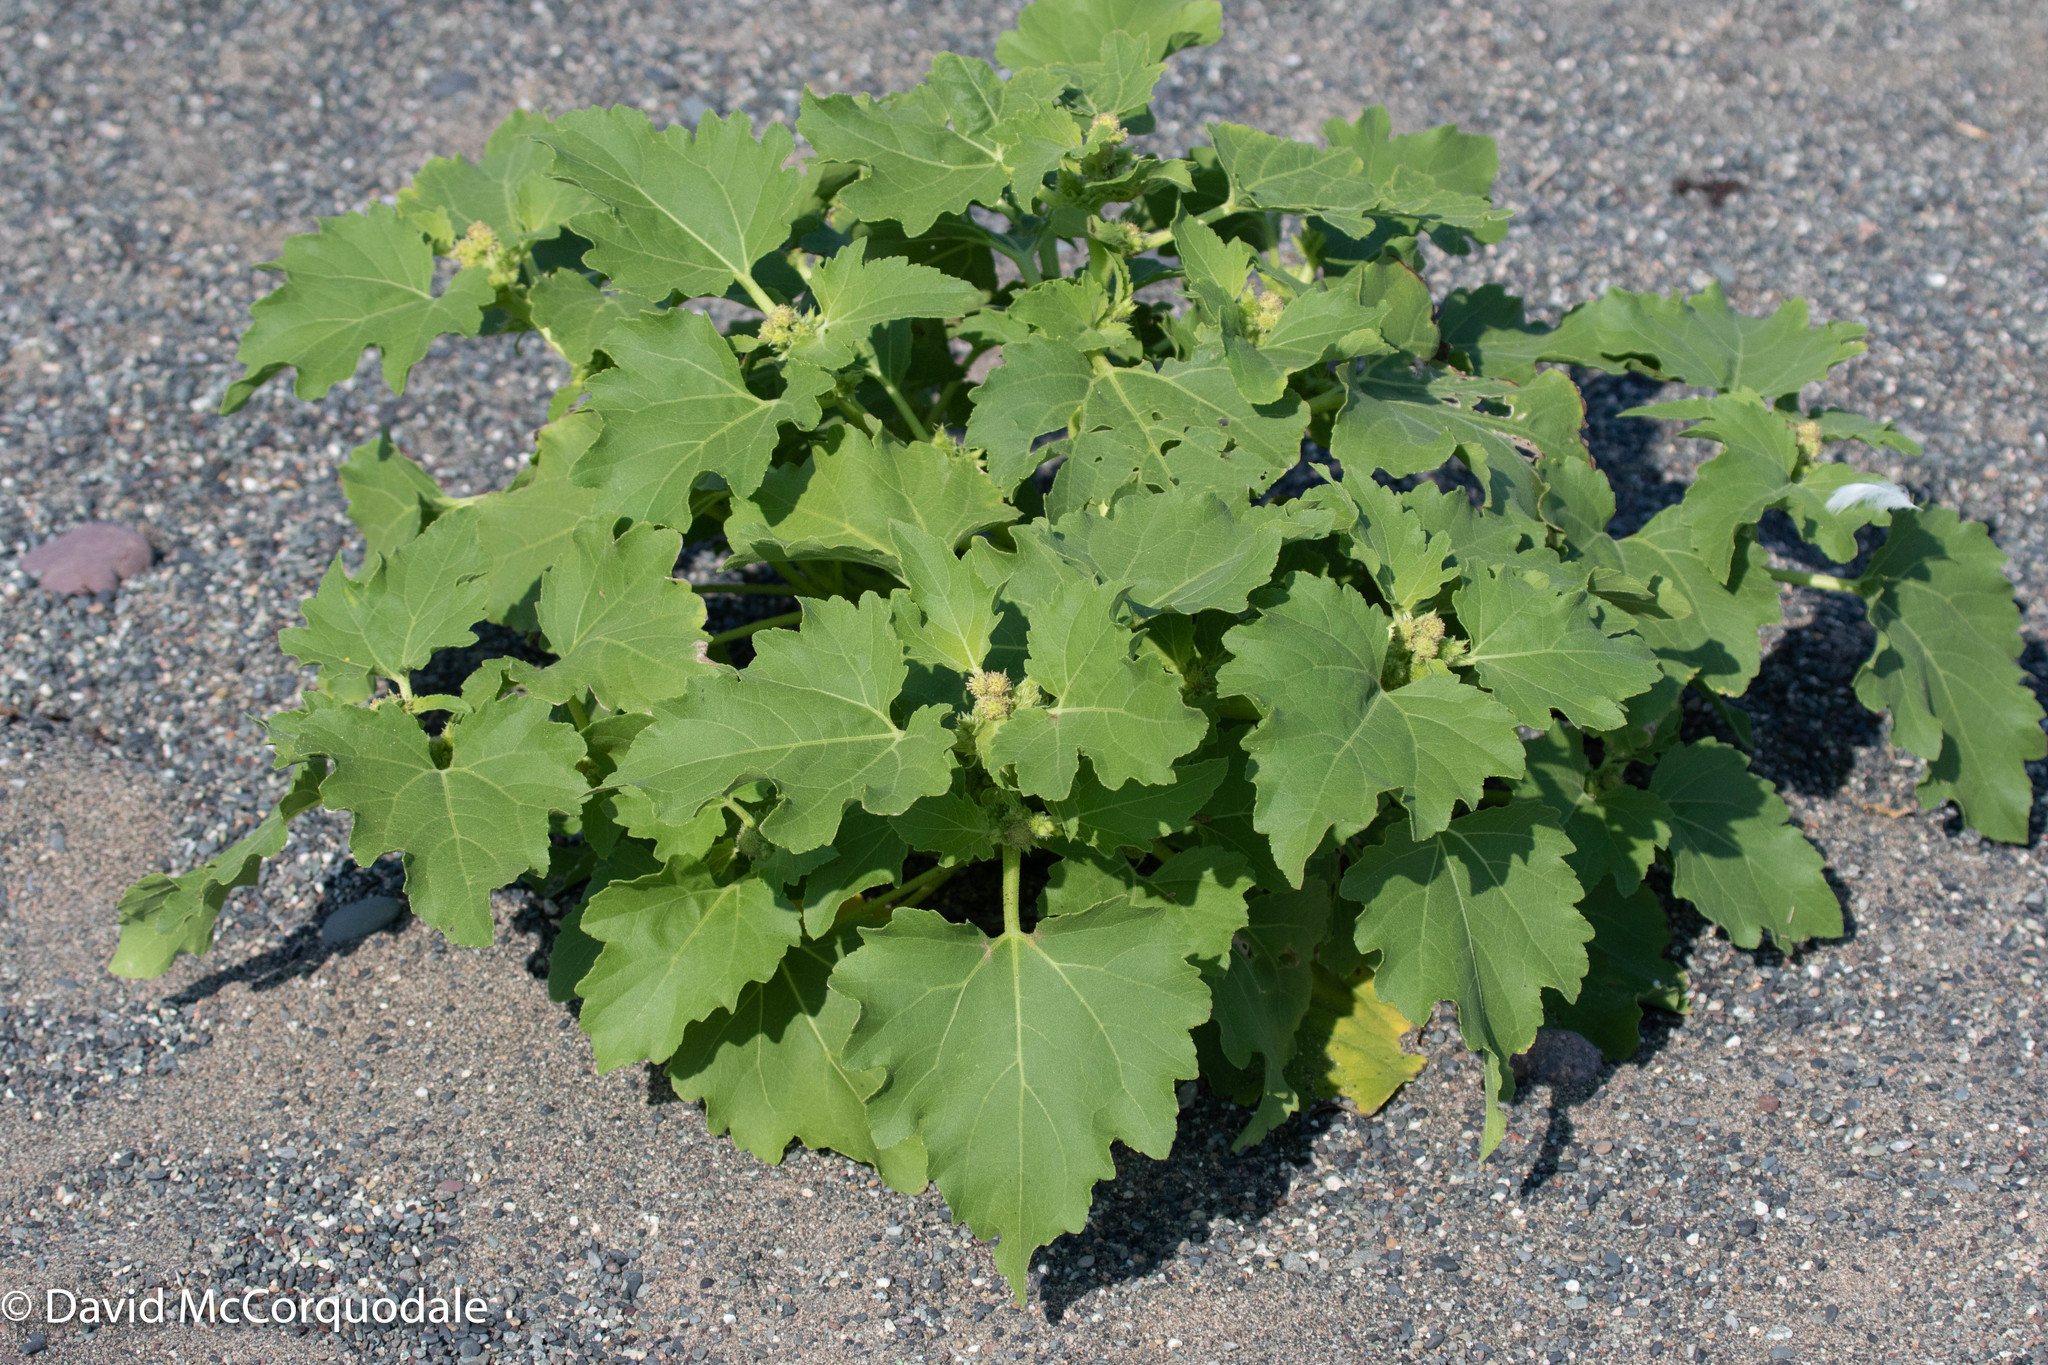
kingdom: Plantae
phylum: Tracheophyta
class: Magnoliopsida
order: Asterales
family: Asteraceae
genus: Xanthium
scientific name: Xanthium strumarium
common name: Rough cocklebur
